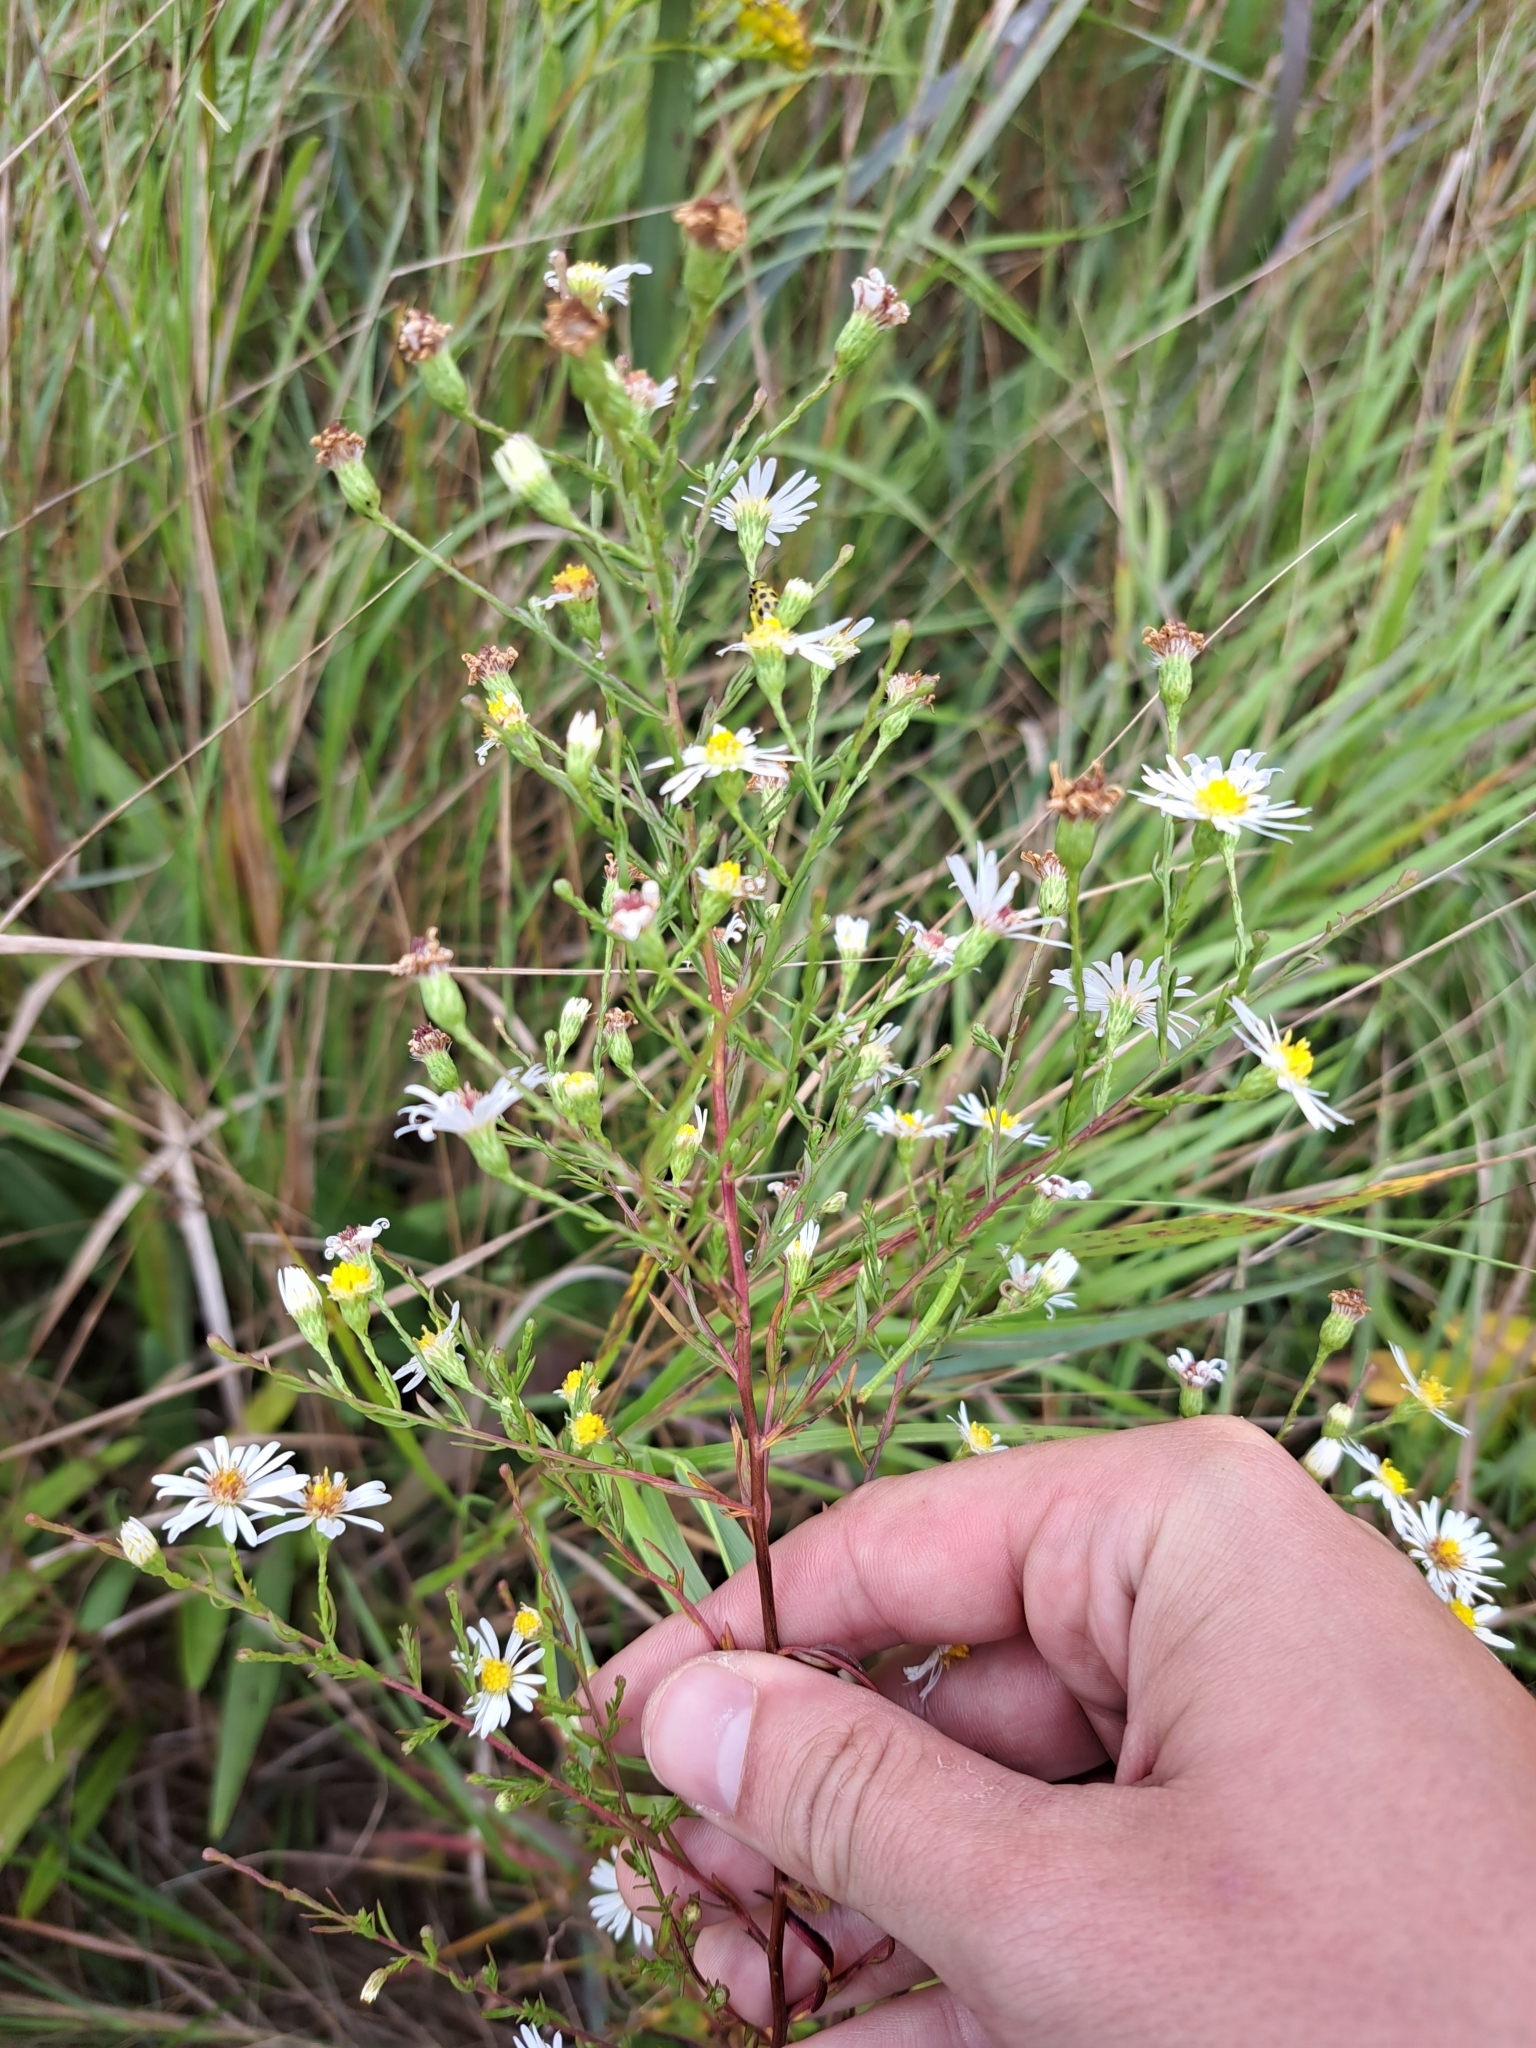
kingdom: Plantae
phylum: Tracheophyta
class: Magnoliopsida
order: Asterales
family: Asteraceae
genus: Symphyotrichum
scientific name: Symphyotrichum lanceolatum
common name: Panicled aster
